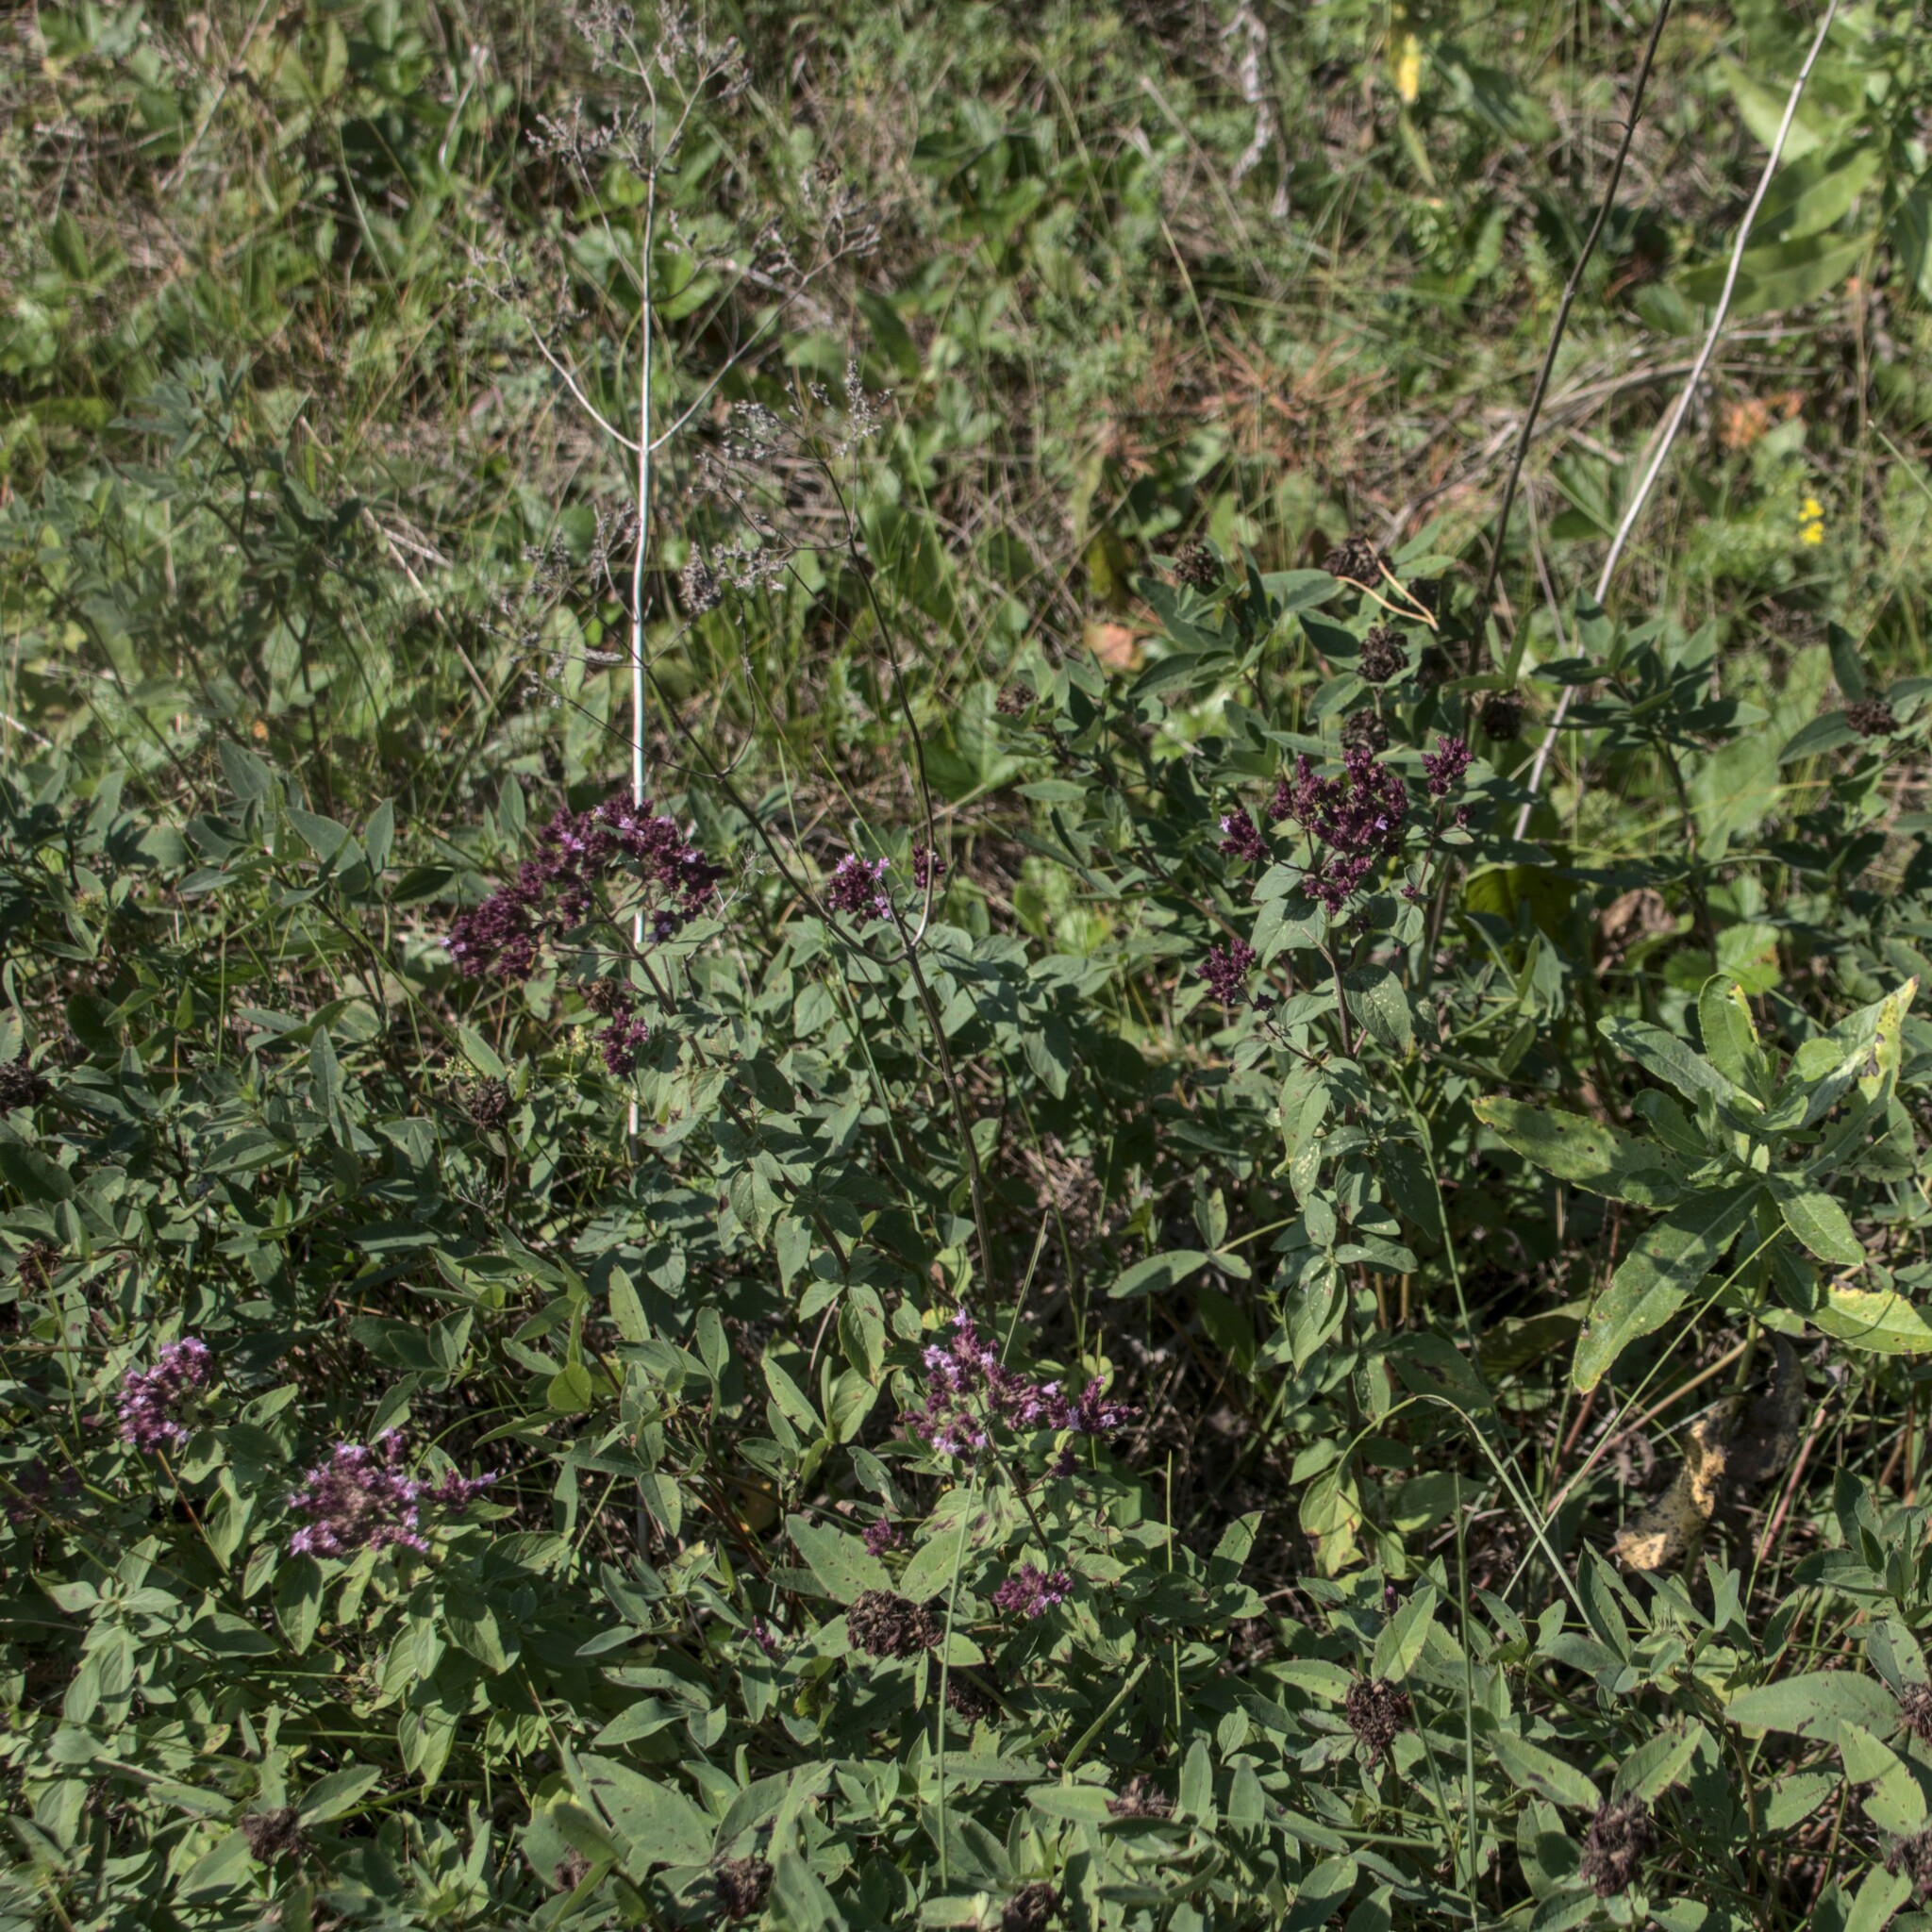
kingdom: Plantae
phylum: Tracheophyta
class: Magnoliopsida
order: Lamiales
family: Lamiaceae
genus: Origanum
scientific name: Origanum vulgare
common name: Wild marjoram
